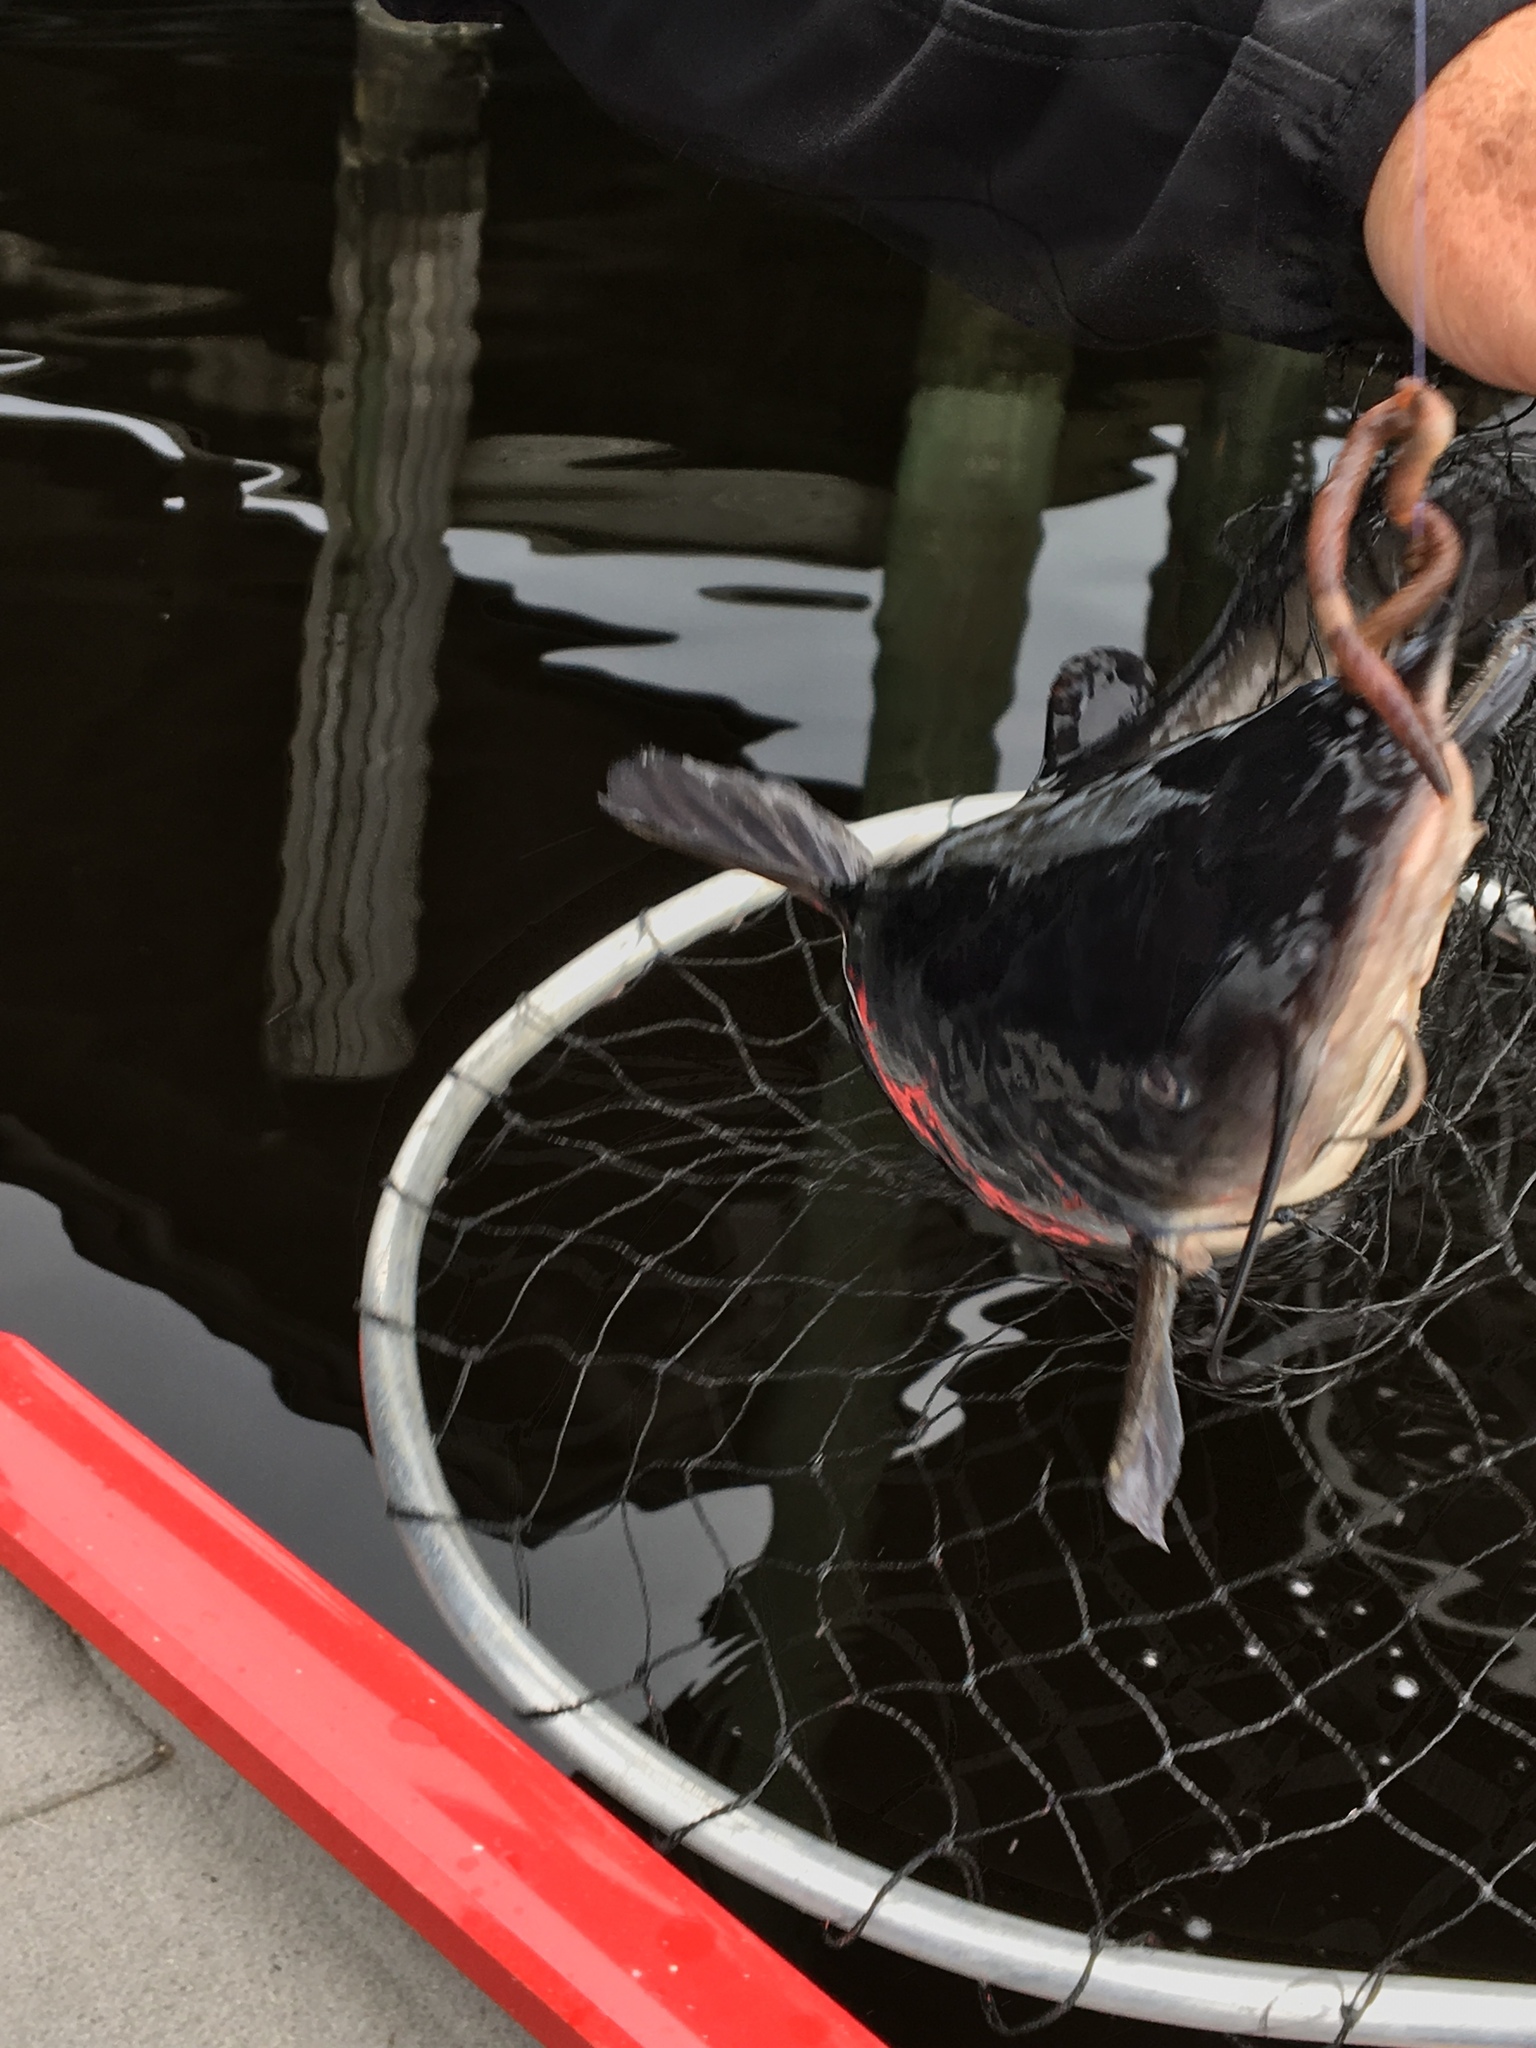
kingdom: Animalia
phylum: Chordata
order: Siluriformes
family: Ictaluridae
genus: Ameiurus
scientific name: Ameiurus catus
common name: White catfish
